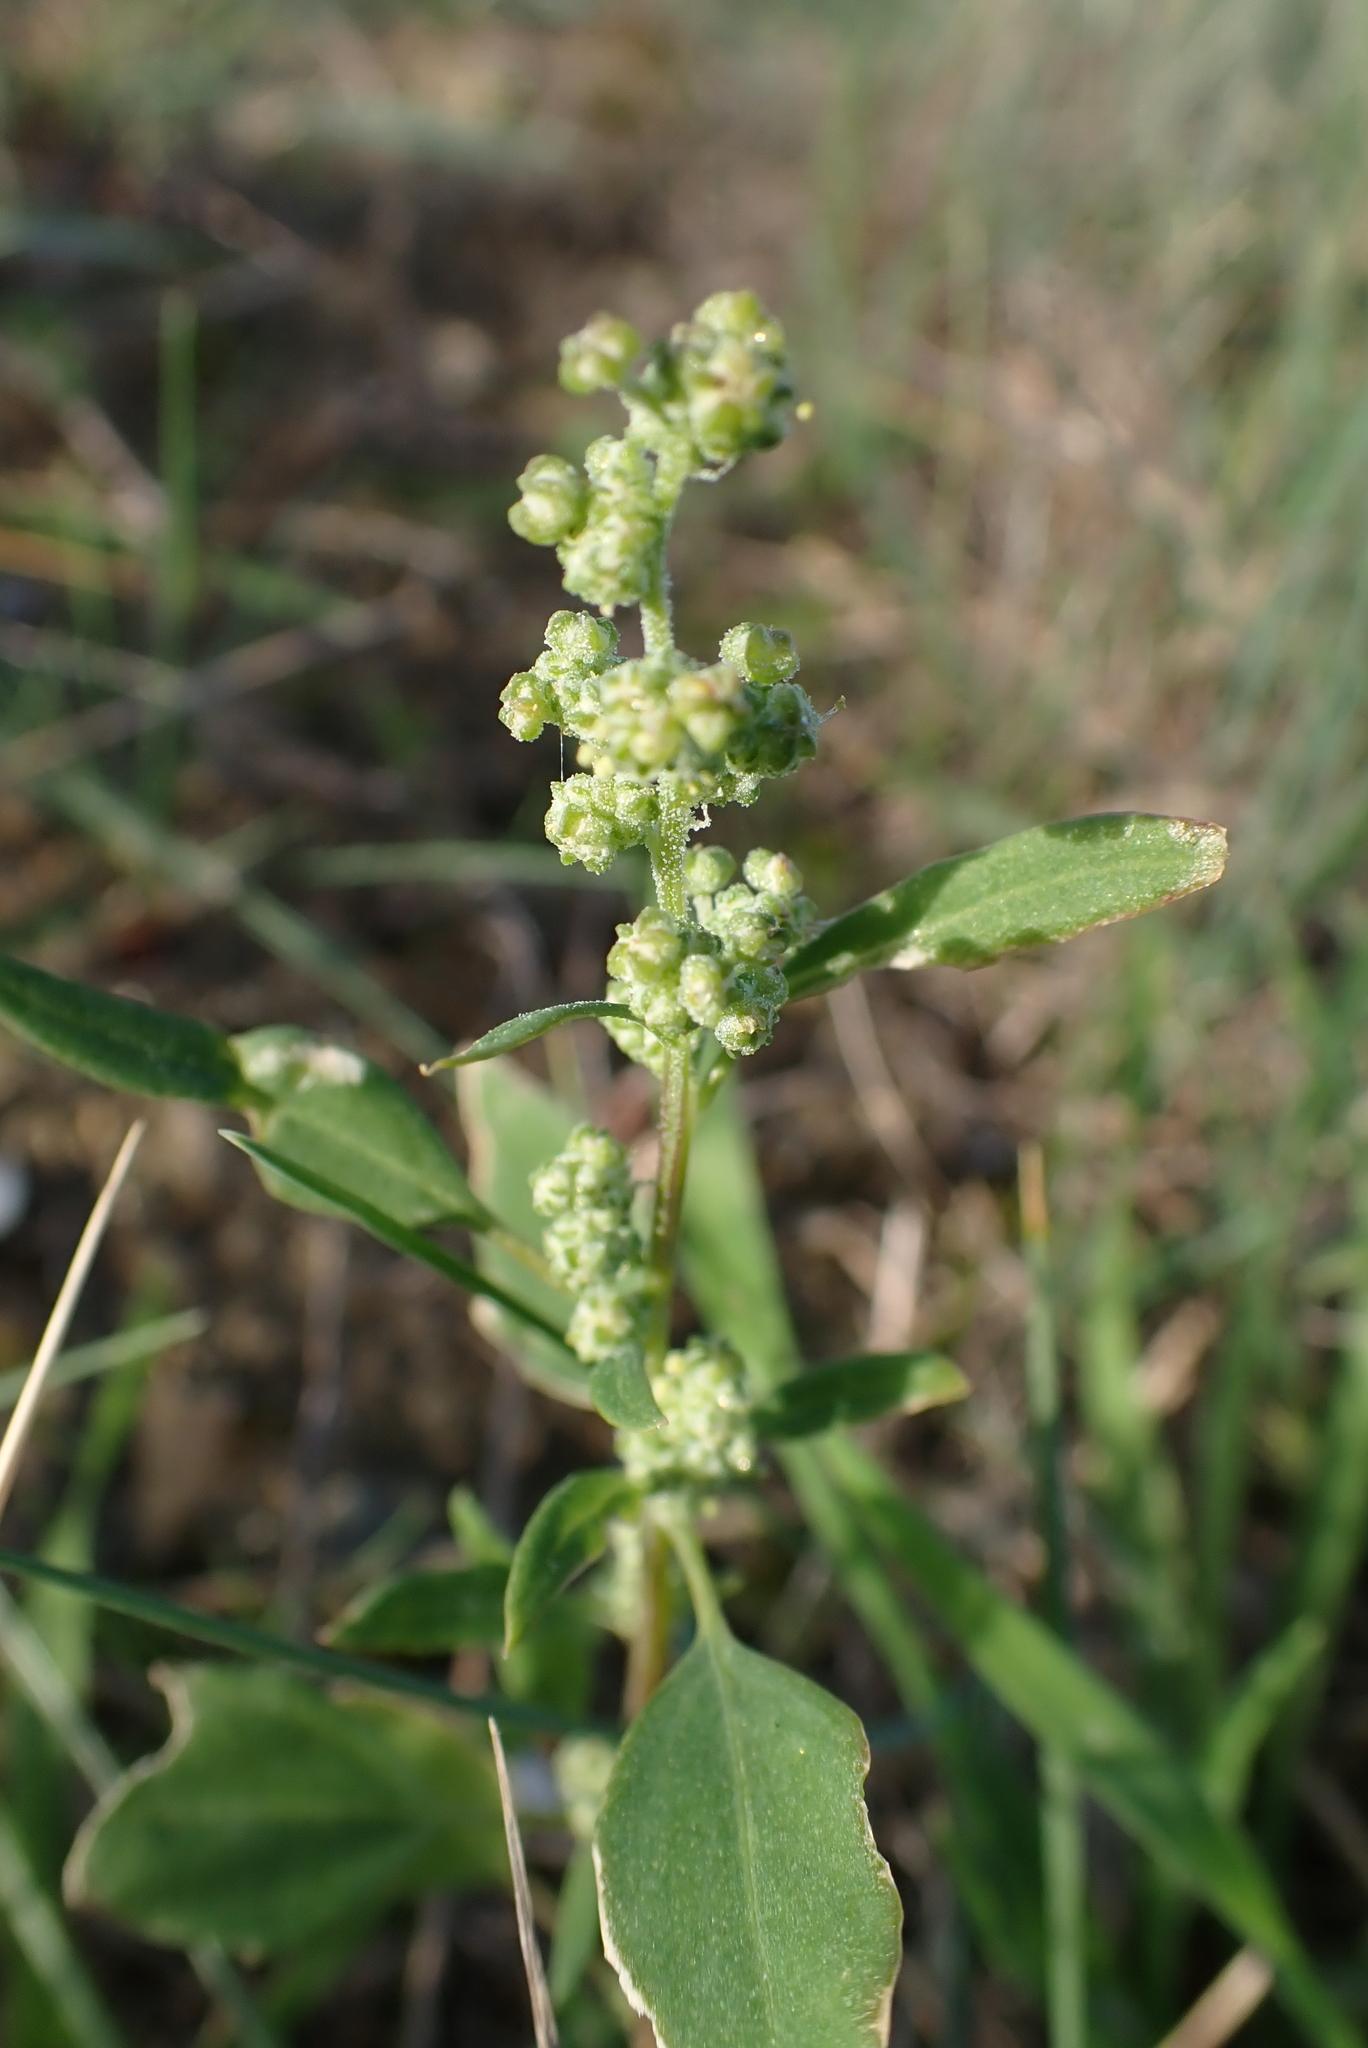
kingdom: Plantae
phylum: Tracheophyta
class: Magnoliopsida
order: Caryophyllales
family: Amaranthaceae
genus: Chenopodium
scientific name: Chenopodium album
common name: Fat-hen
